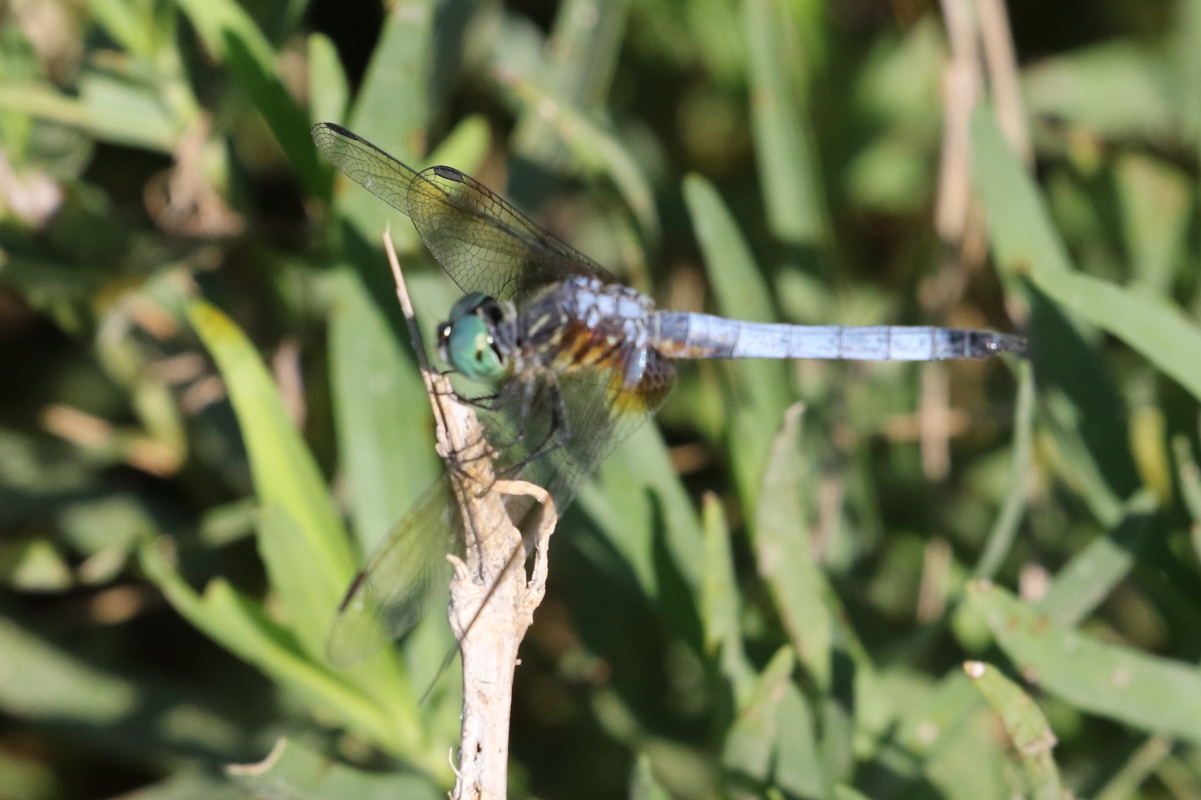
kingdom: Animalia
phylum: Arthropoda
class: Insecta
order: Odonata
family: Libellulidae
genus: Pachydiplax
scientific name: Pachydiplax longipennis
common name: Blue dasher
